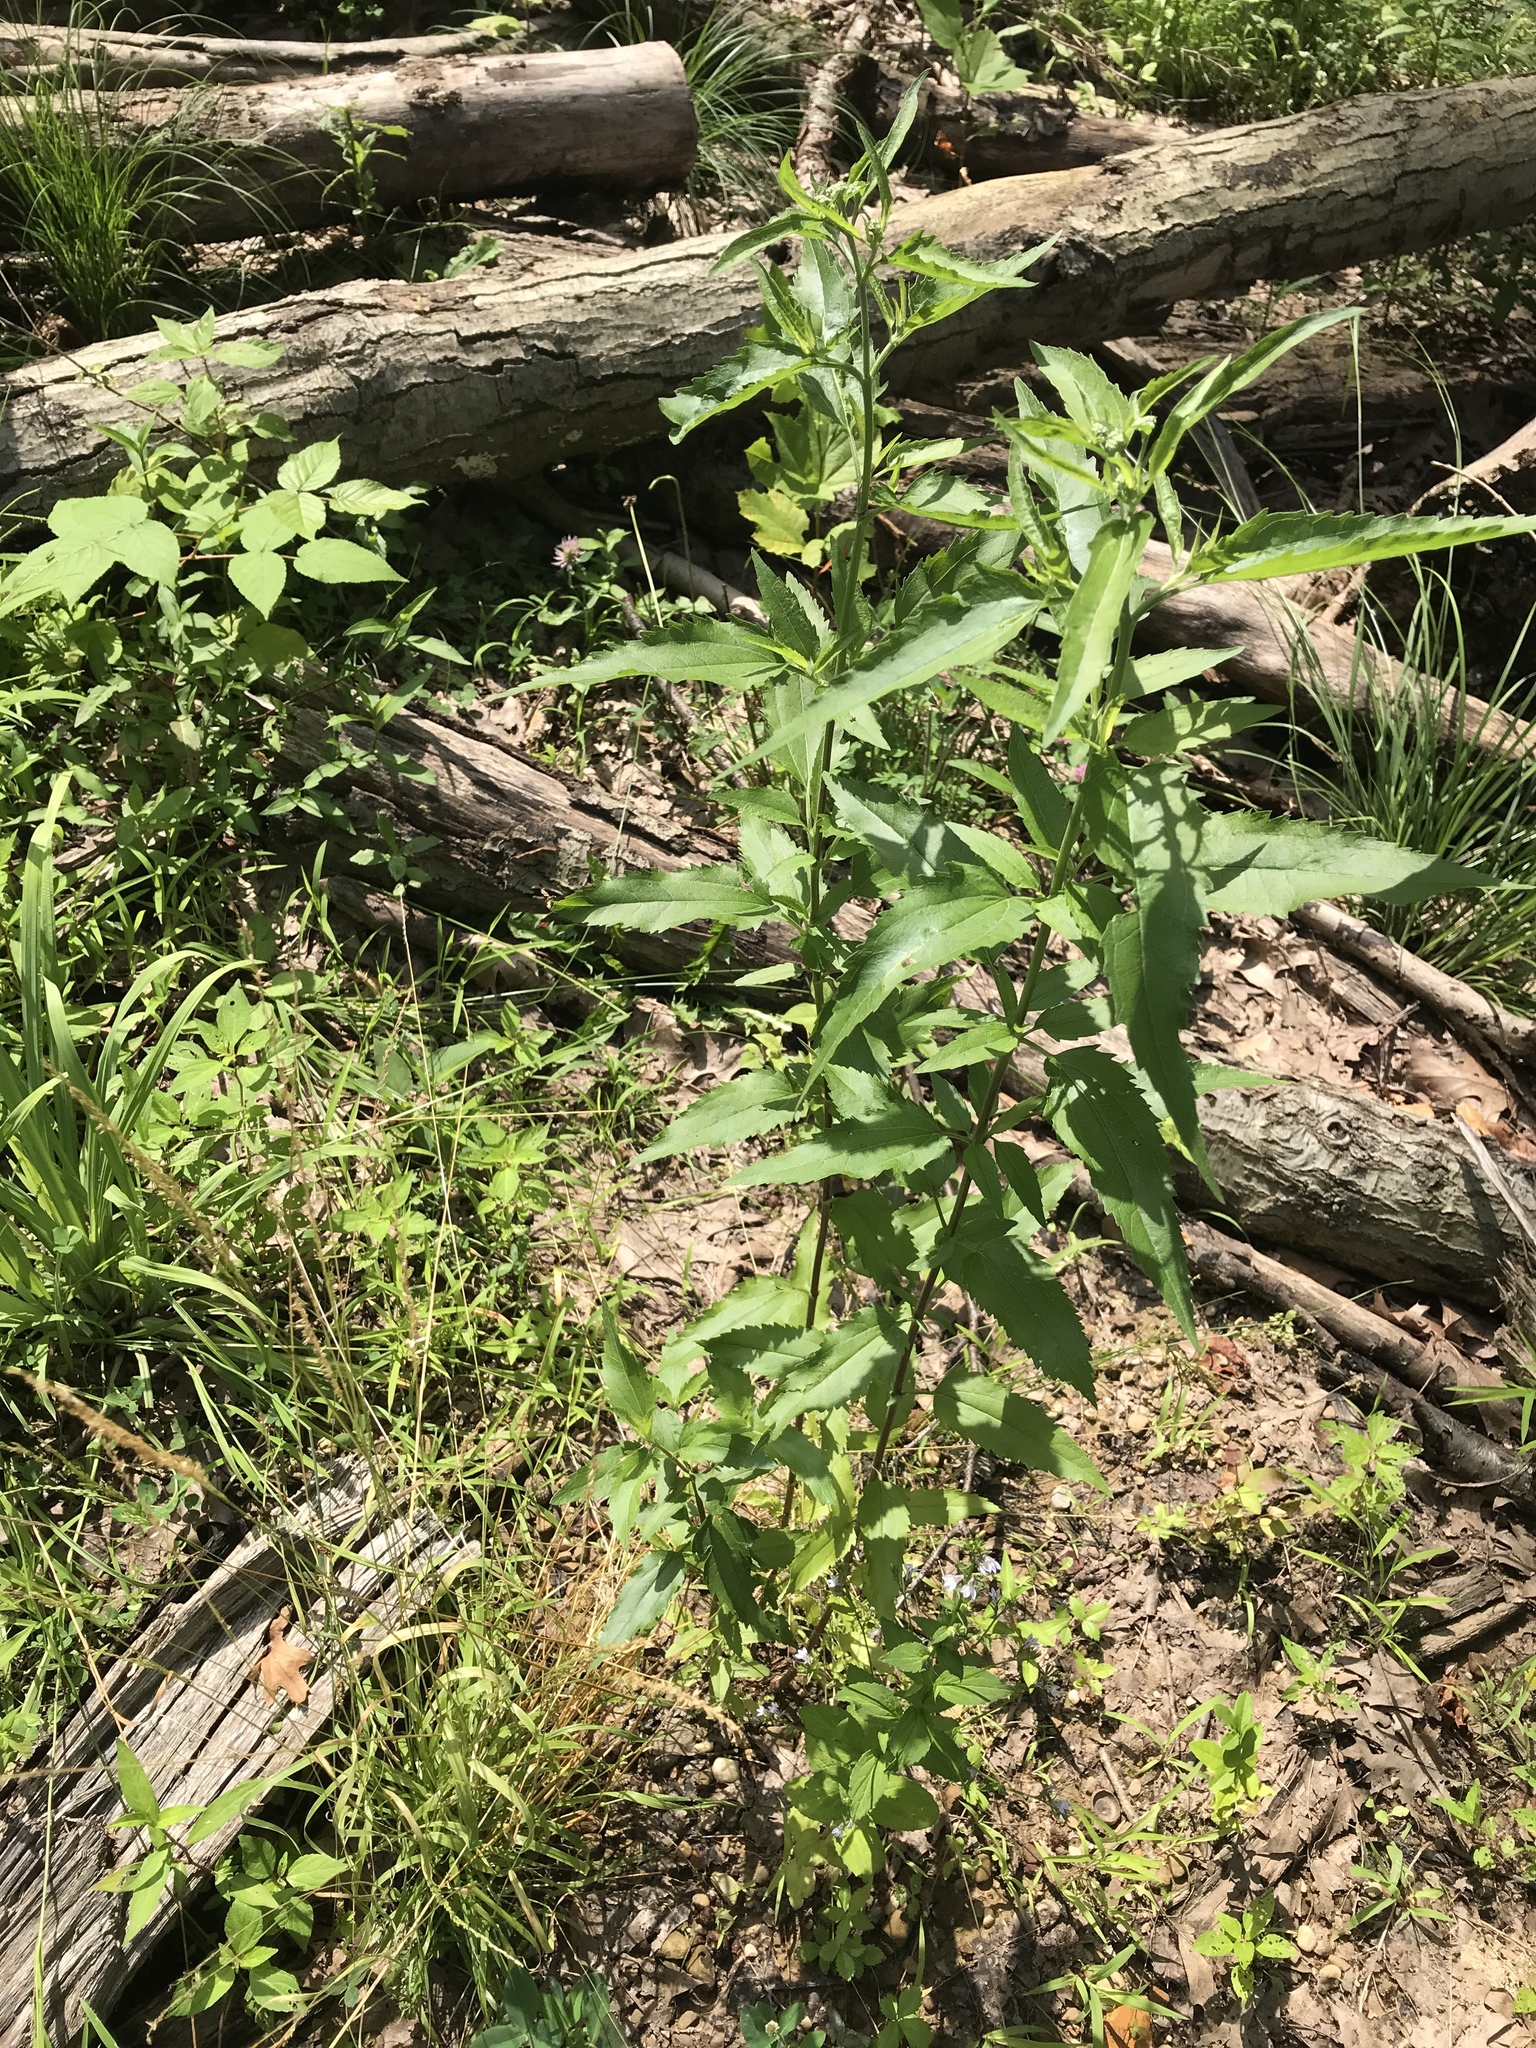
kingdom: Plantae
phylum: Tracheophyta
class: Magnoliopsida
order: Asterales
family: Asteraceae
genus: Eupatorium
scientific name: Eupatorium serotinum
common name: Late boneset
